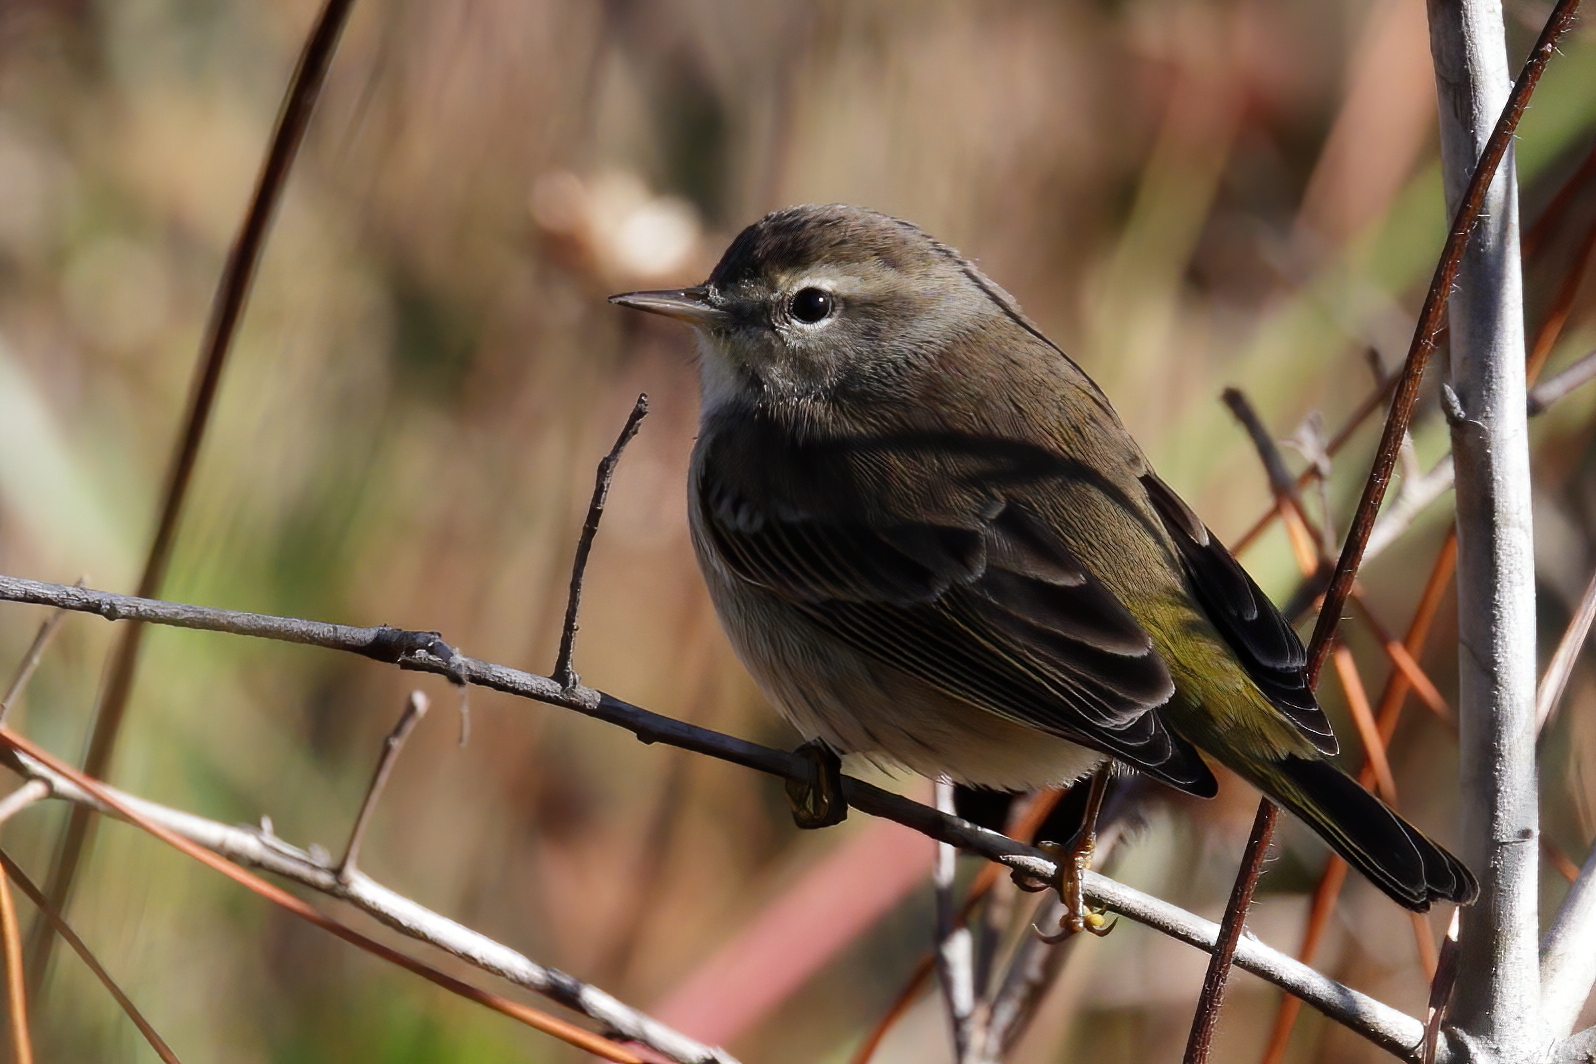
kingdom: Animalia
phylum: Chordata
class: Aves
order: Passeriformes
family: Parulidae
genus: Setophaga
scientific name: Setophaga palmarum
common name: Palm warbler
